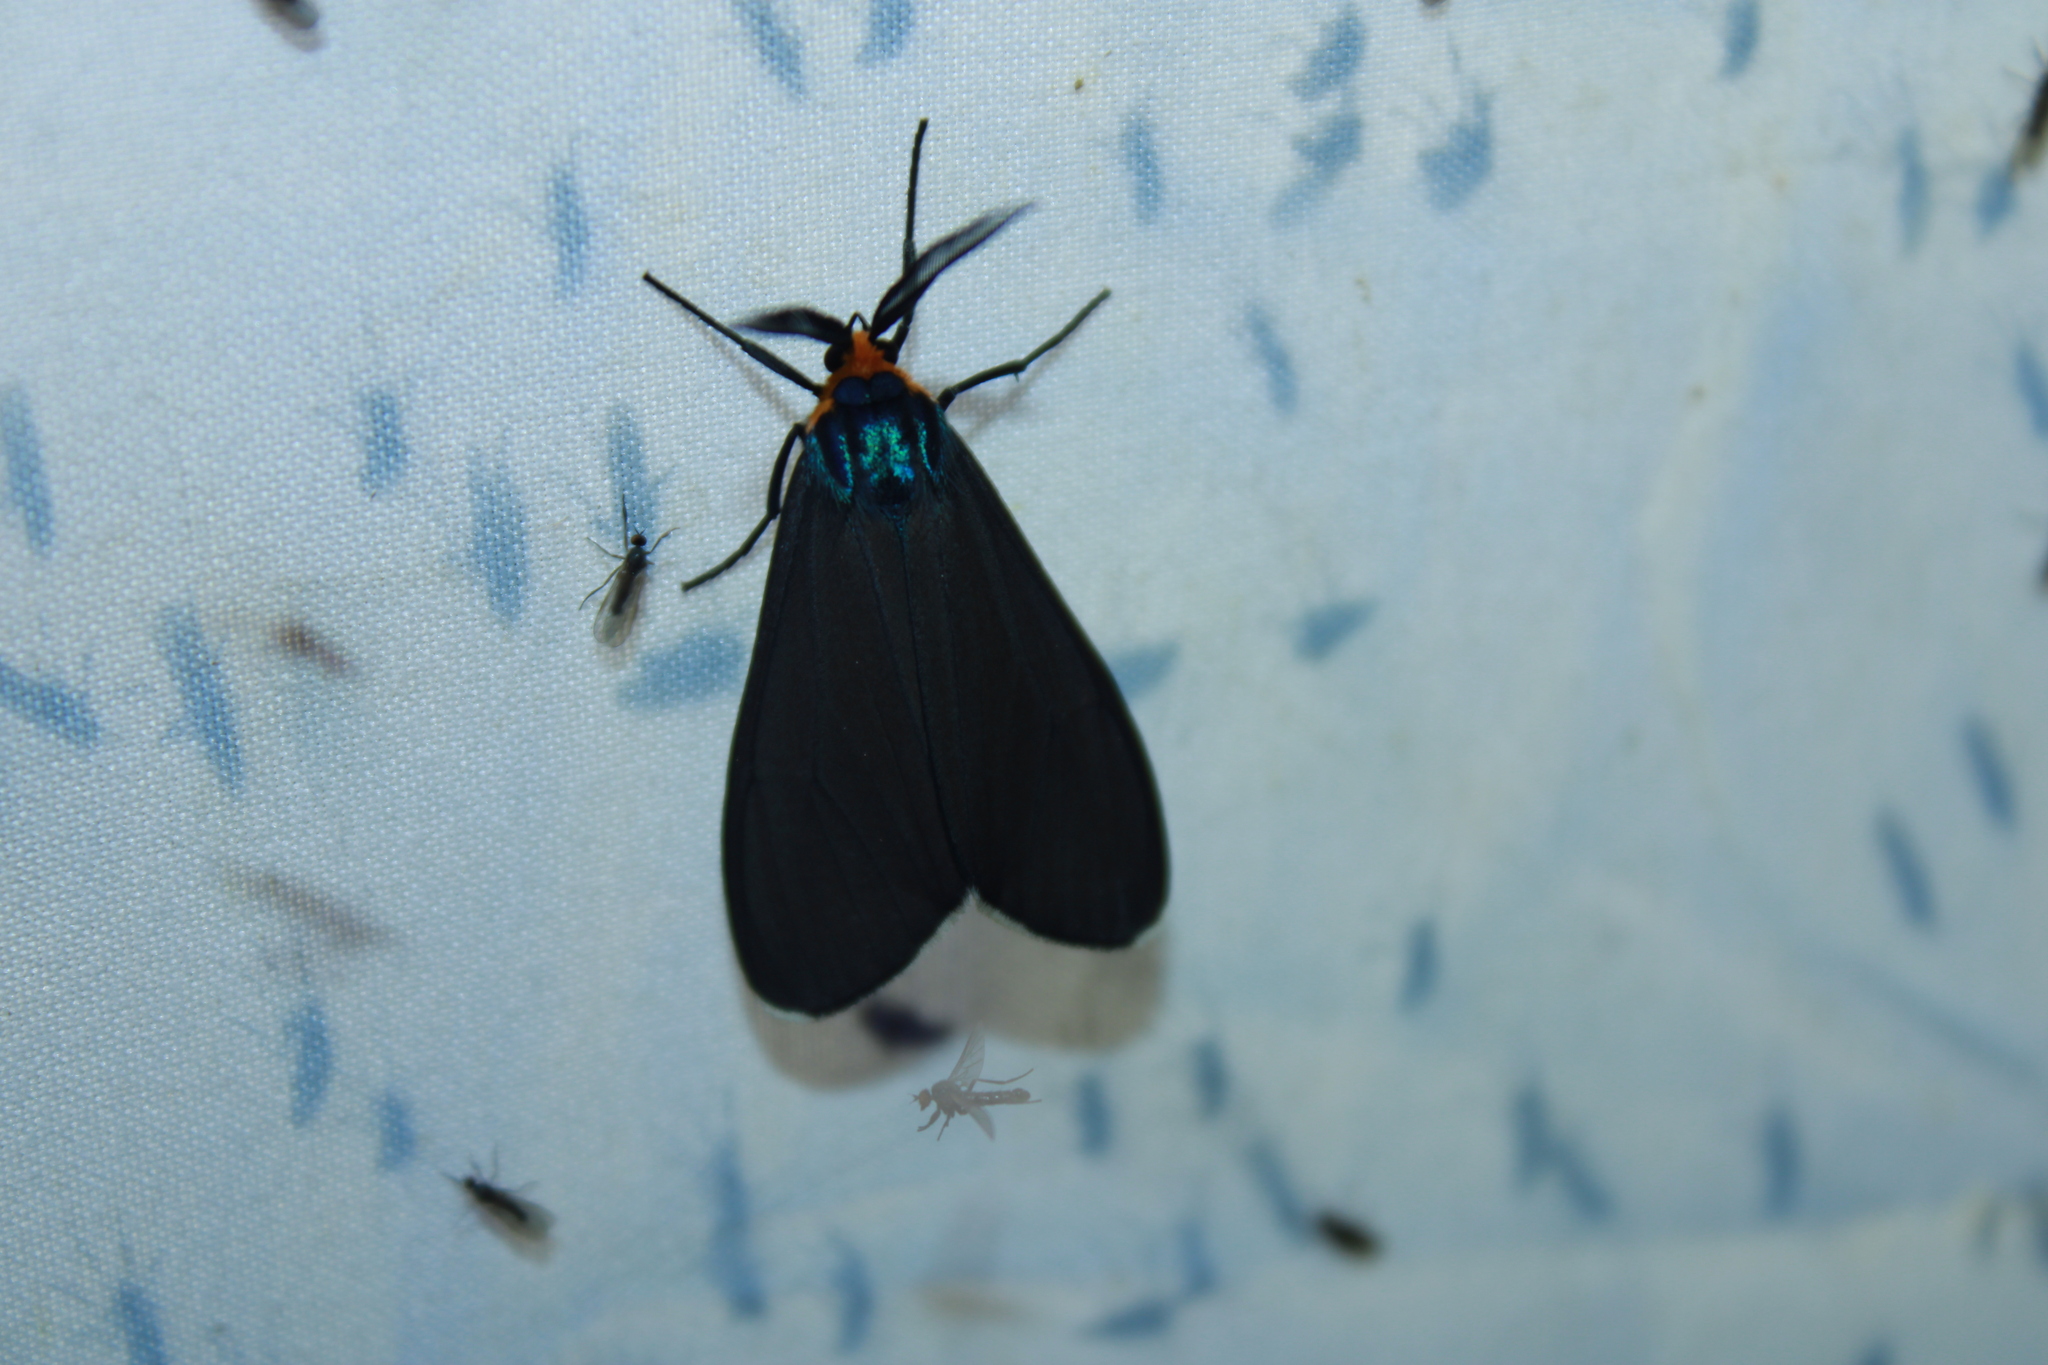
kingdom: Animalia
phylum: Arthropoda
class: Insecta
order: Lepidoptera
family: Erebidae
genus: Ctenucha
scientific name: Ctenucha virginica
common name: Virginia ctenucha moth
